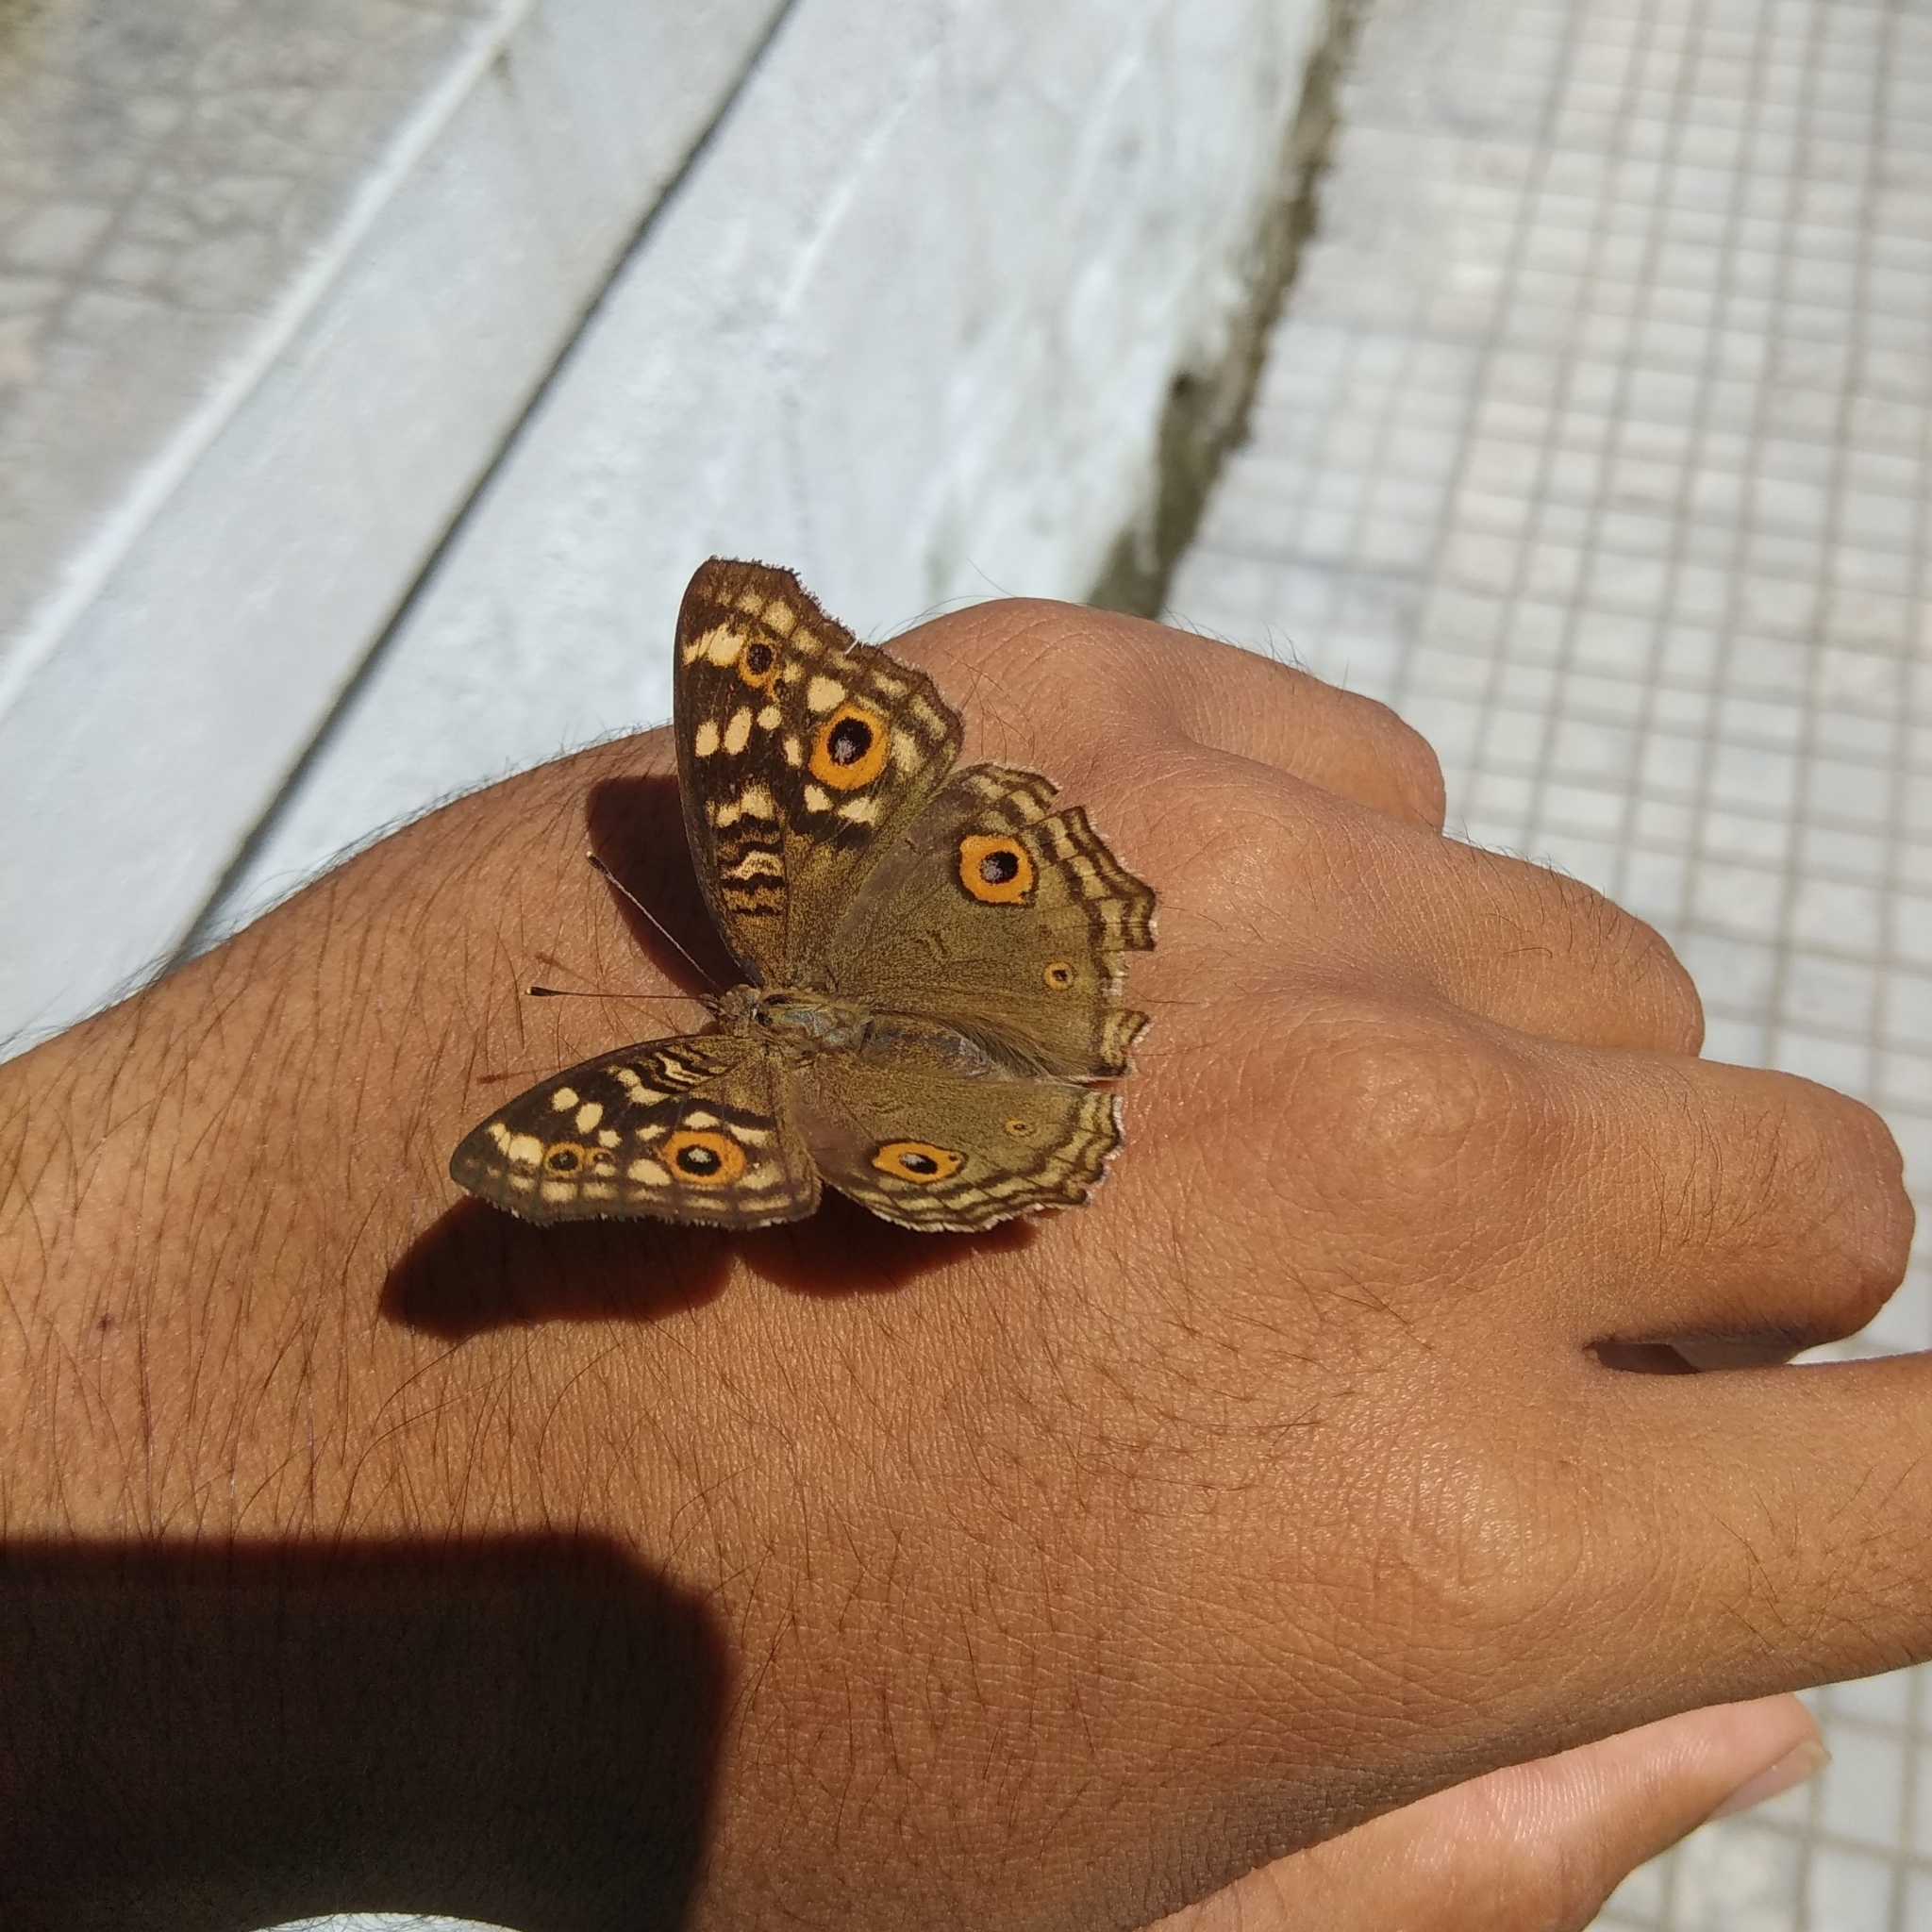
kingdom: Animalia
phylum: Arthropoda
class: Insecta
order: Lepidoptera
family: Nymphalidae
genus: Junonia
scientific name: Junonia lemonias
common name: Lemon pansy
